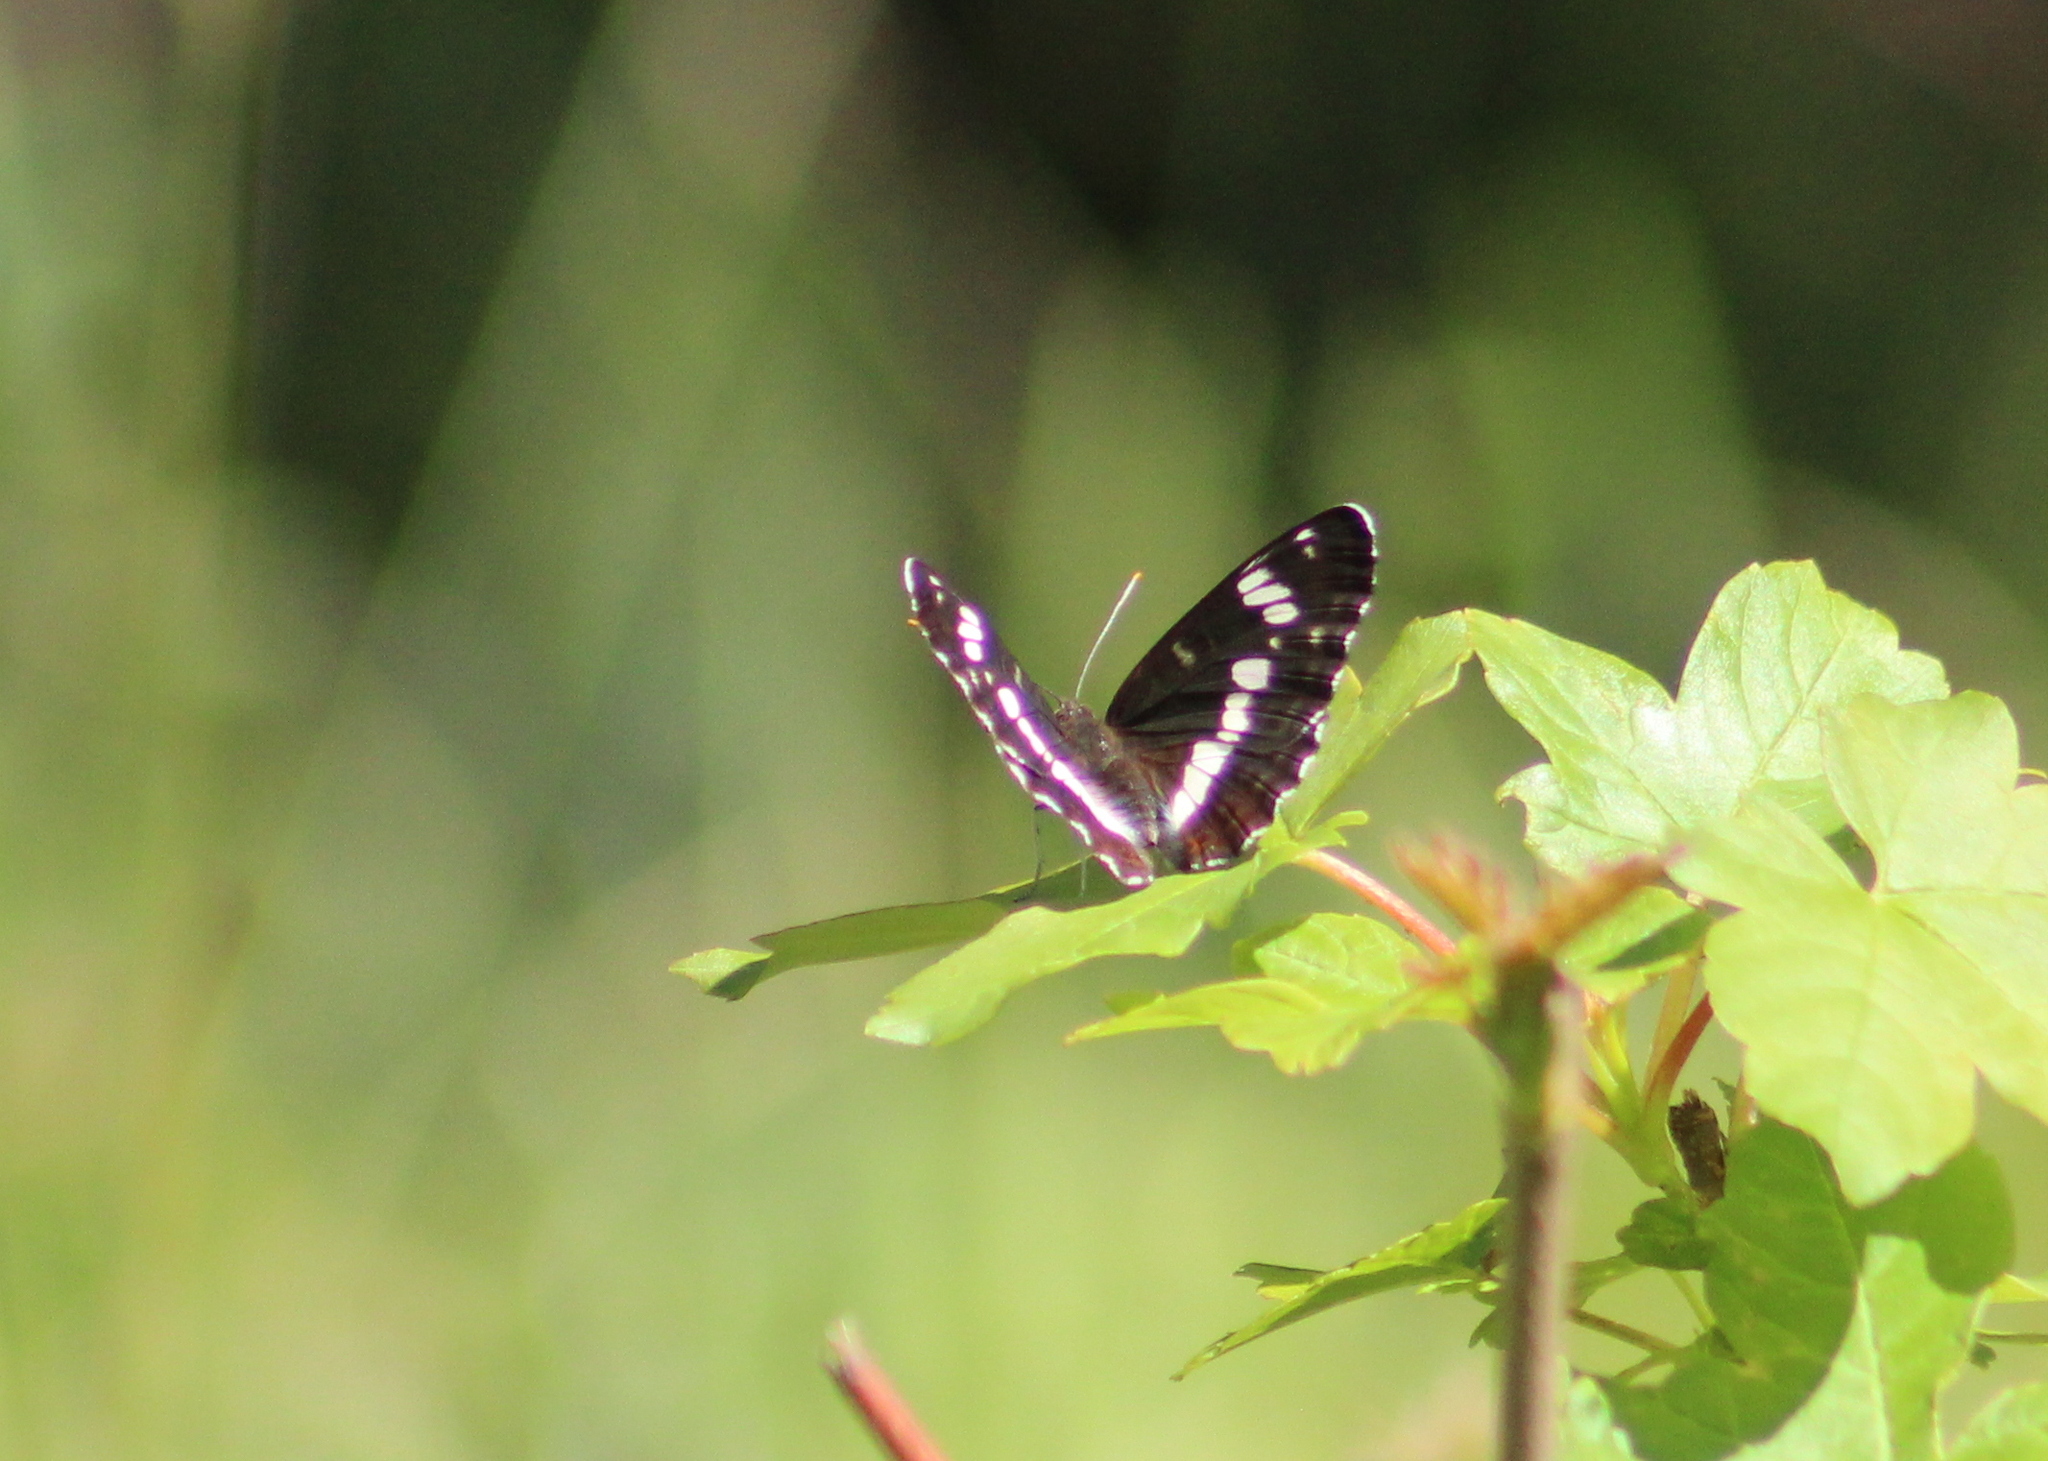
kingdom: Animalia
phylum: Arthropoda
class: Insecta
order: Lepidoptera
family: Nymphalidae
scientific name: Nymphalidae
